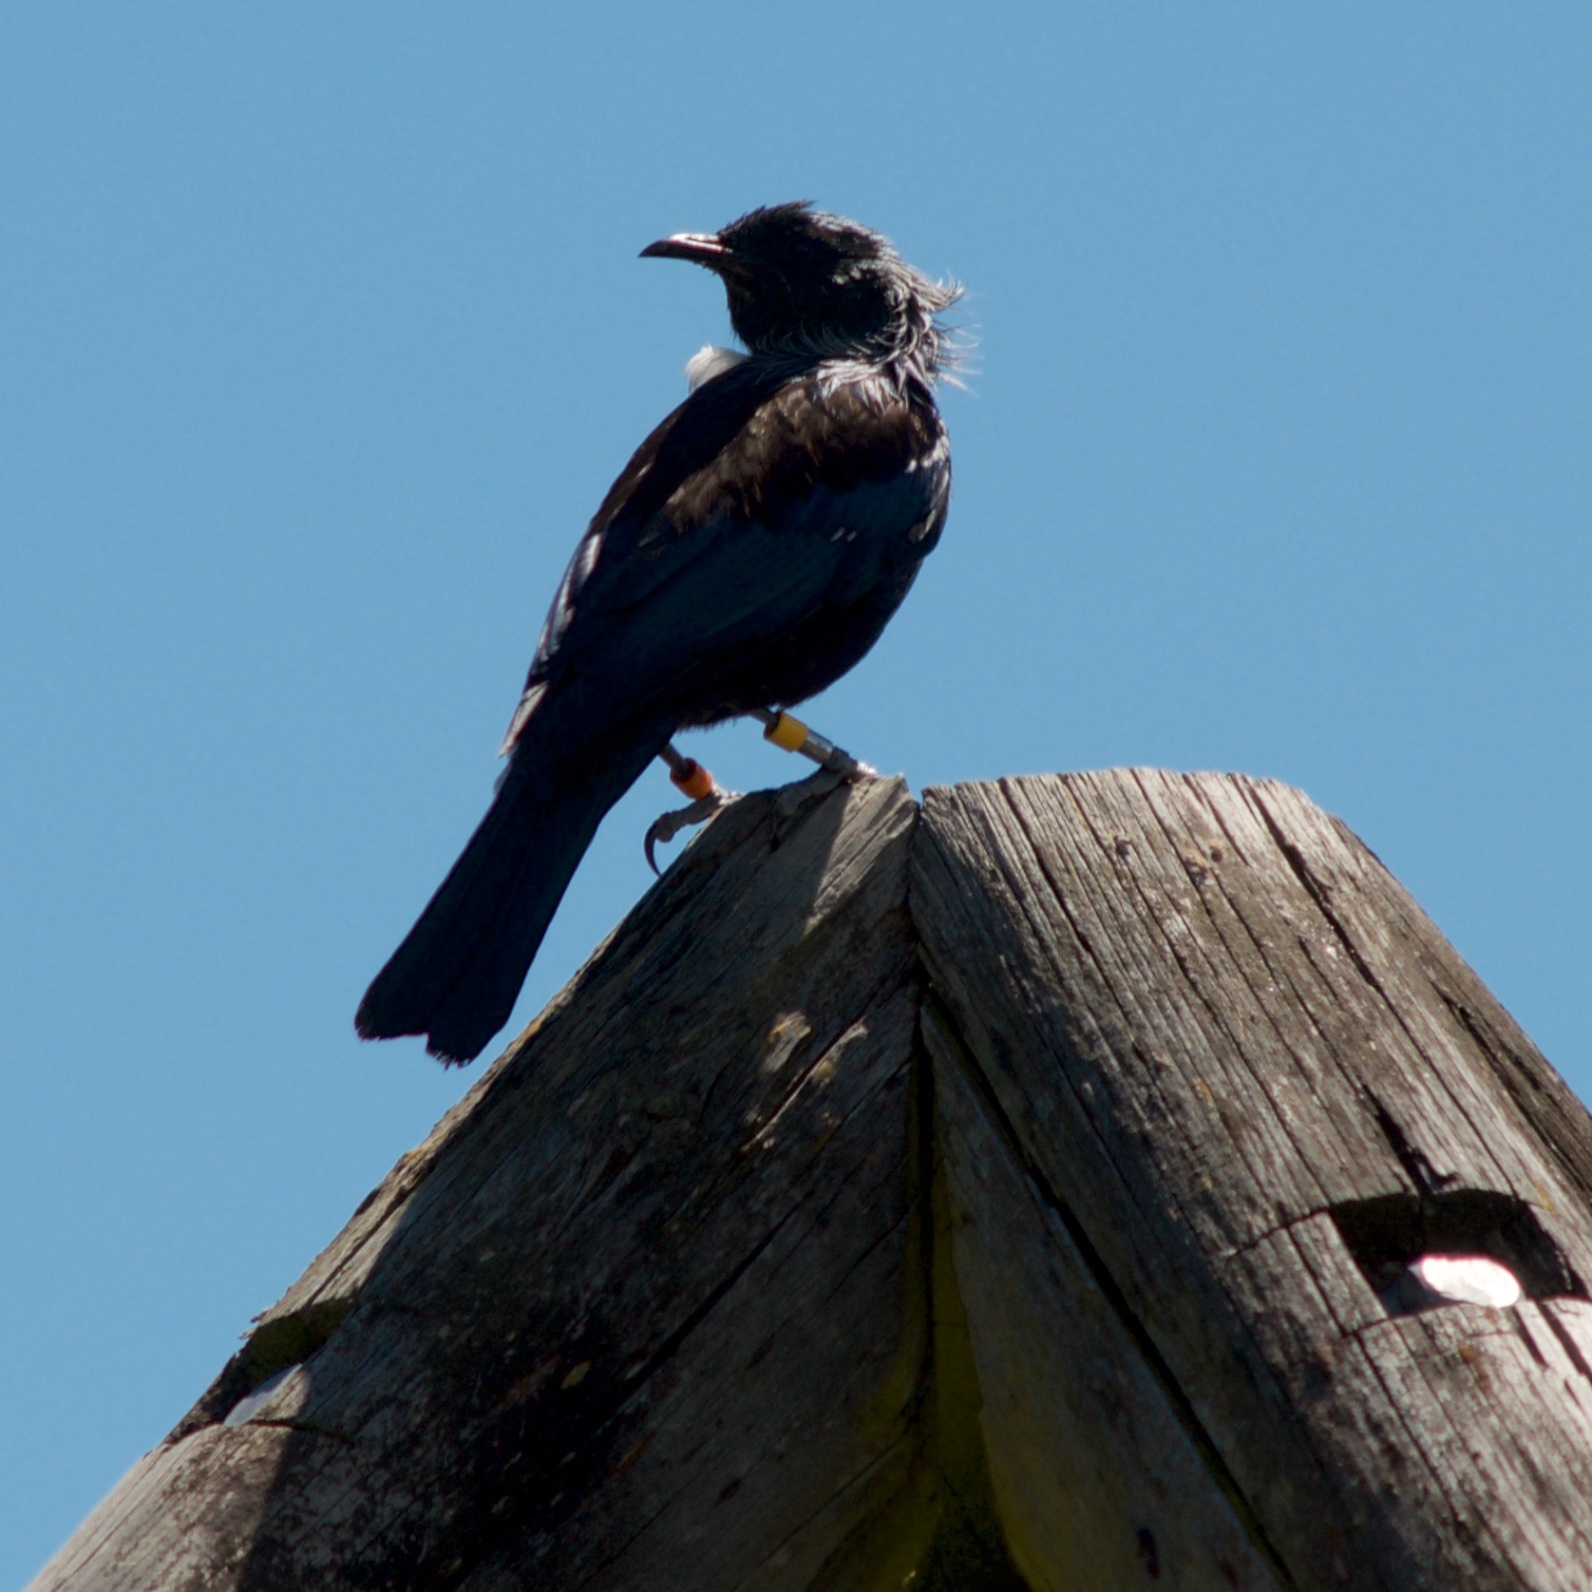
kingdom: Animalia
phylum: Chordata
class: Aves
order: Passeriformes
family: Meliphagidae
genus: Prosthemadera
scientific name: Prosthemadera novaeseelandiae
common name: Tui
